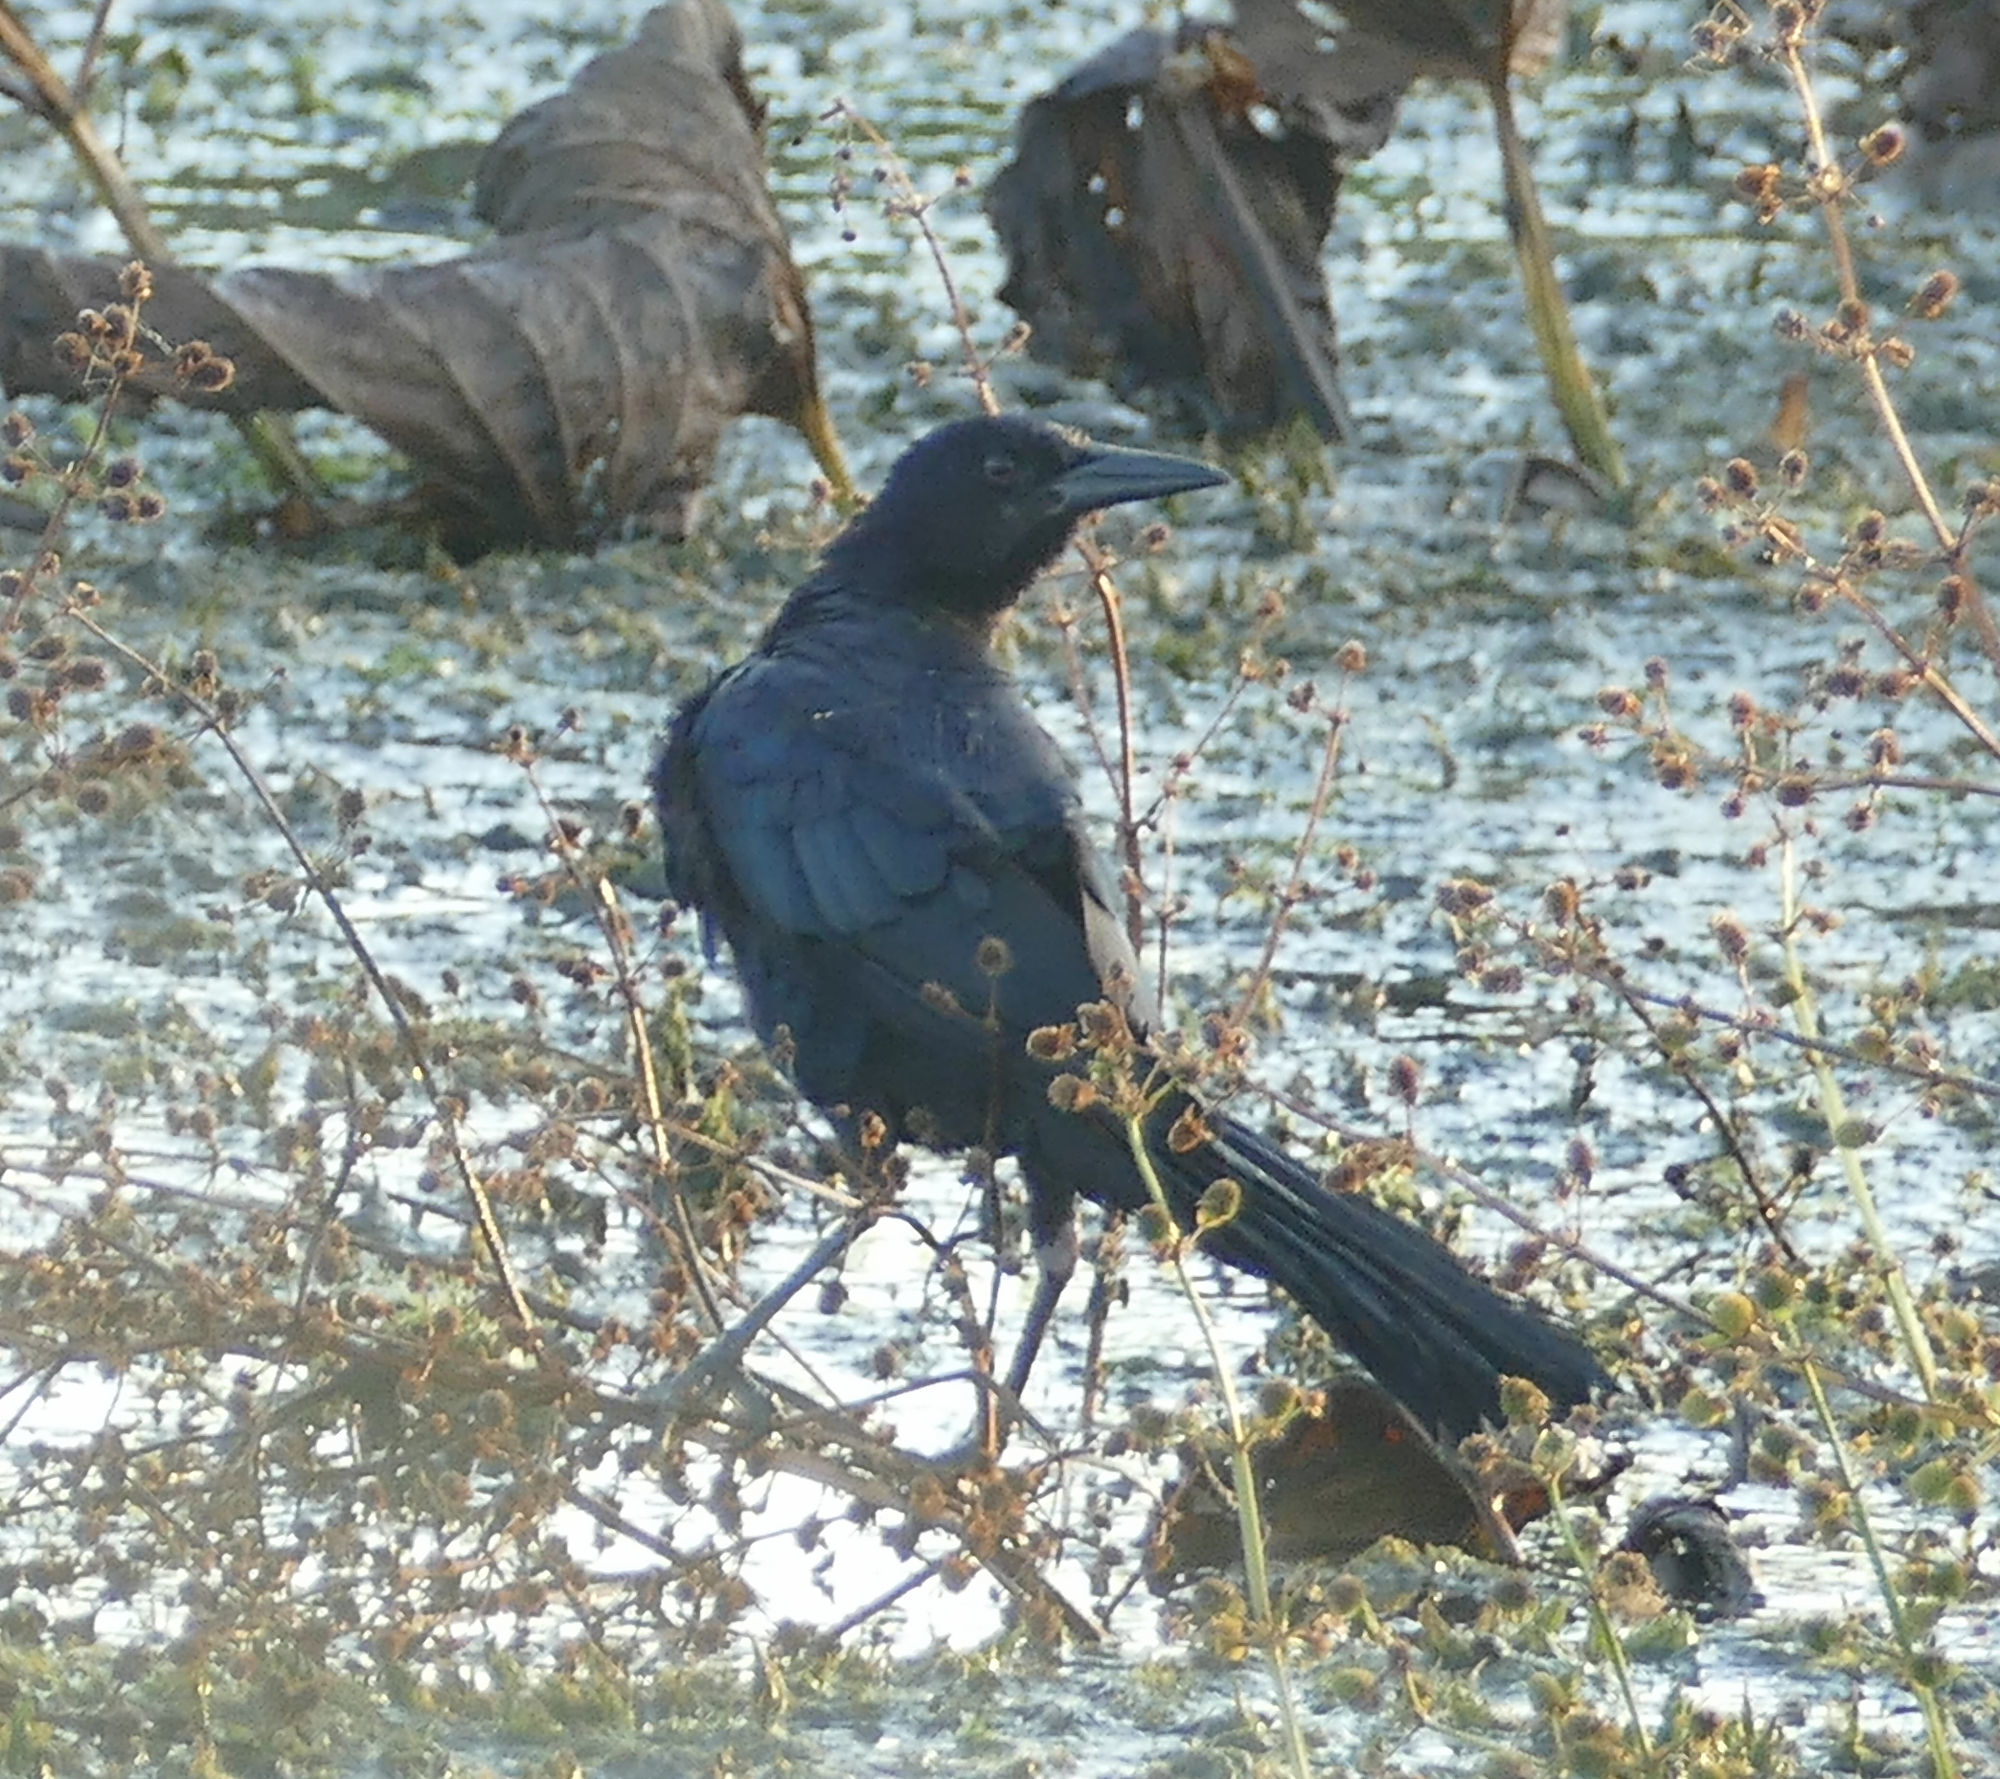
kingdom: Animalia
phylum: Chordata
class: Aves
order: Passeriformes
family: Icteridae
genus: Quiscalus
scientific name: Quiscalus major
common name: Boat-tailed grackle
